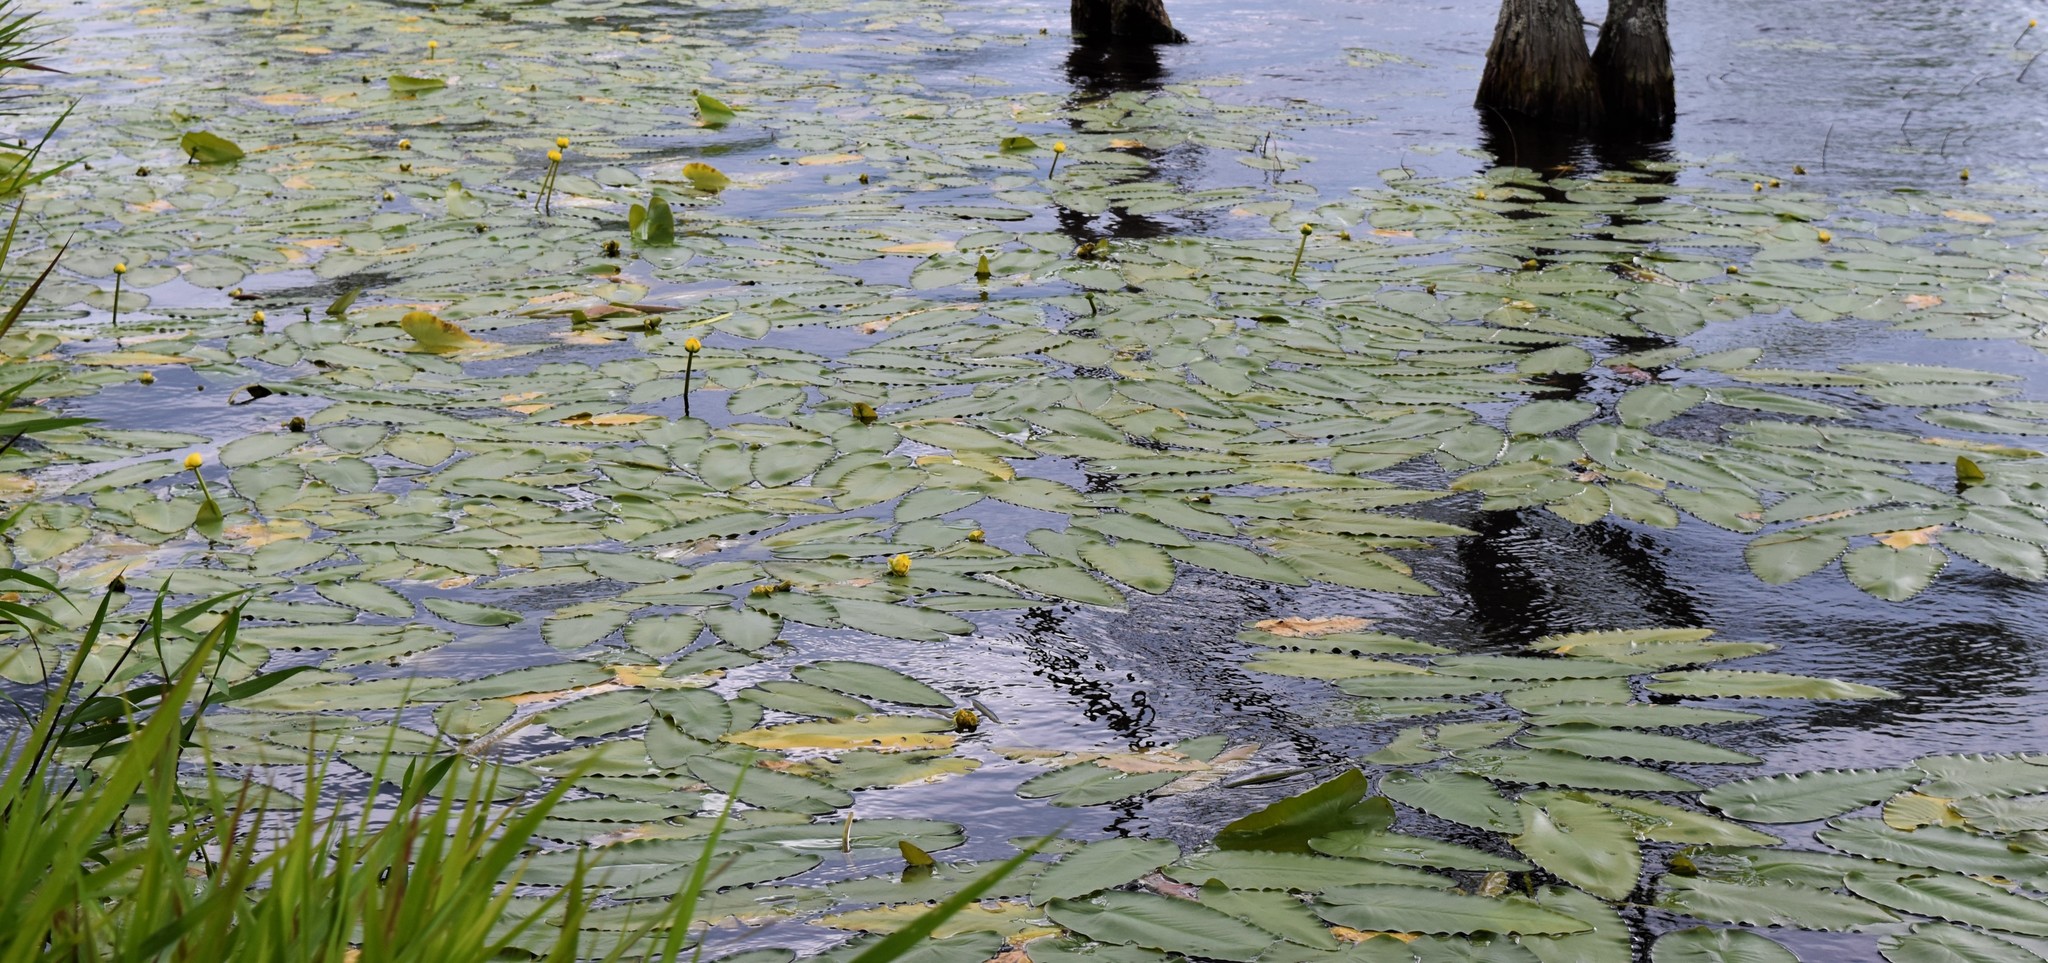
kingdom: Plantae
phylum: Tracheophyta
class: Magnoliopsida
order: Nymphaeales
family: Nymphaeaceae
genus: Nuphar
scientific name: Nuphar sagittifolia
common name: Cape fear spatterdock
